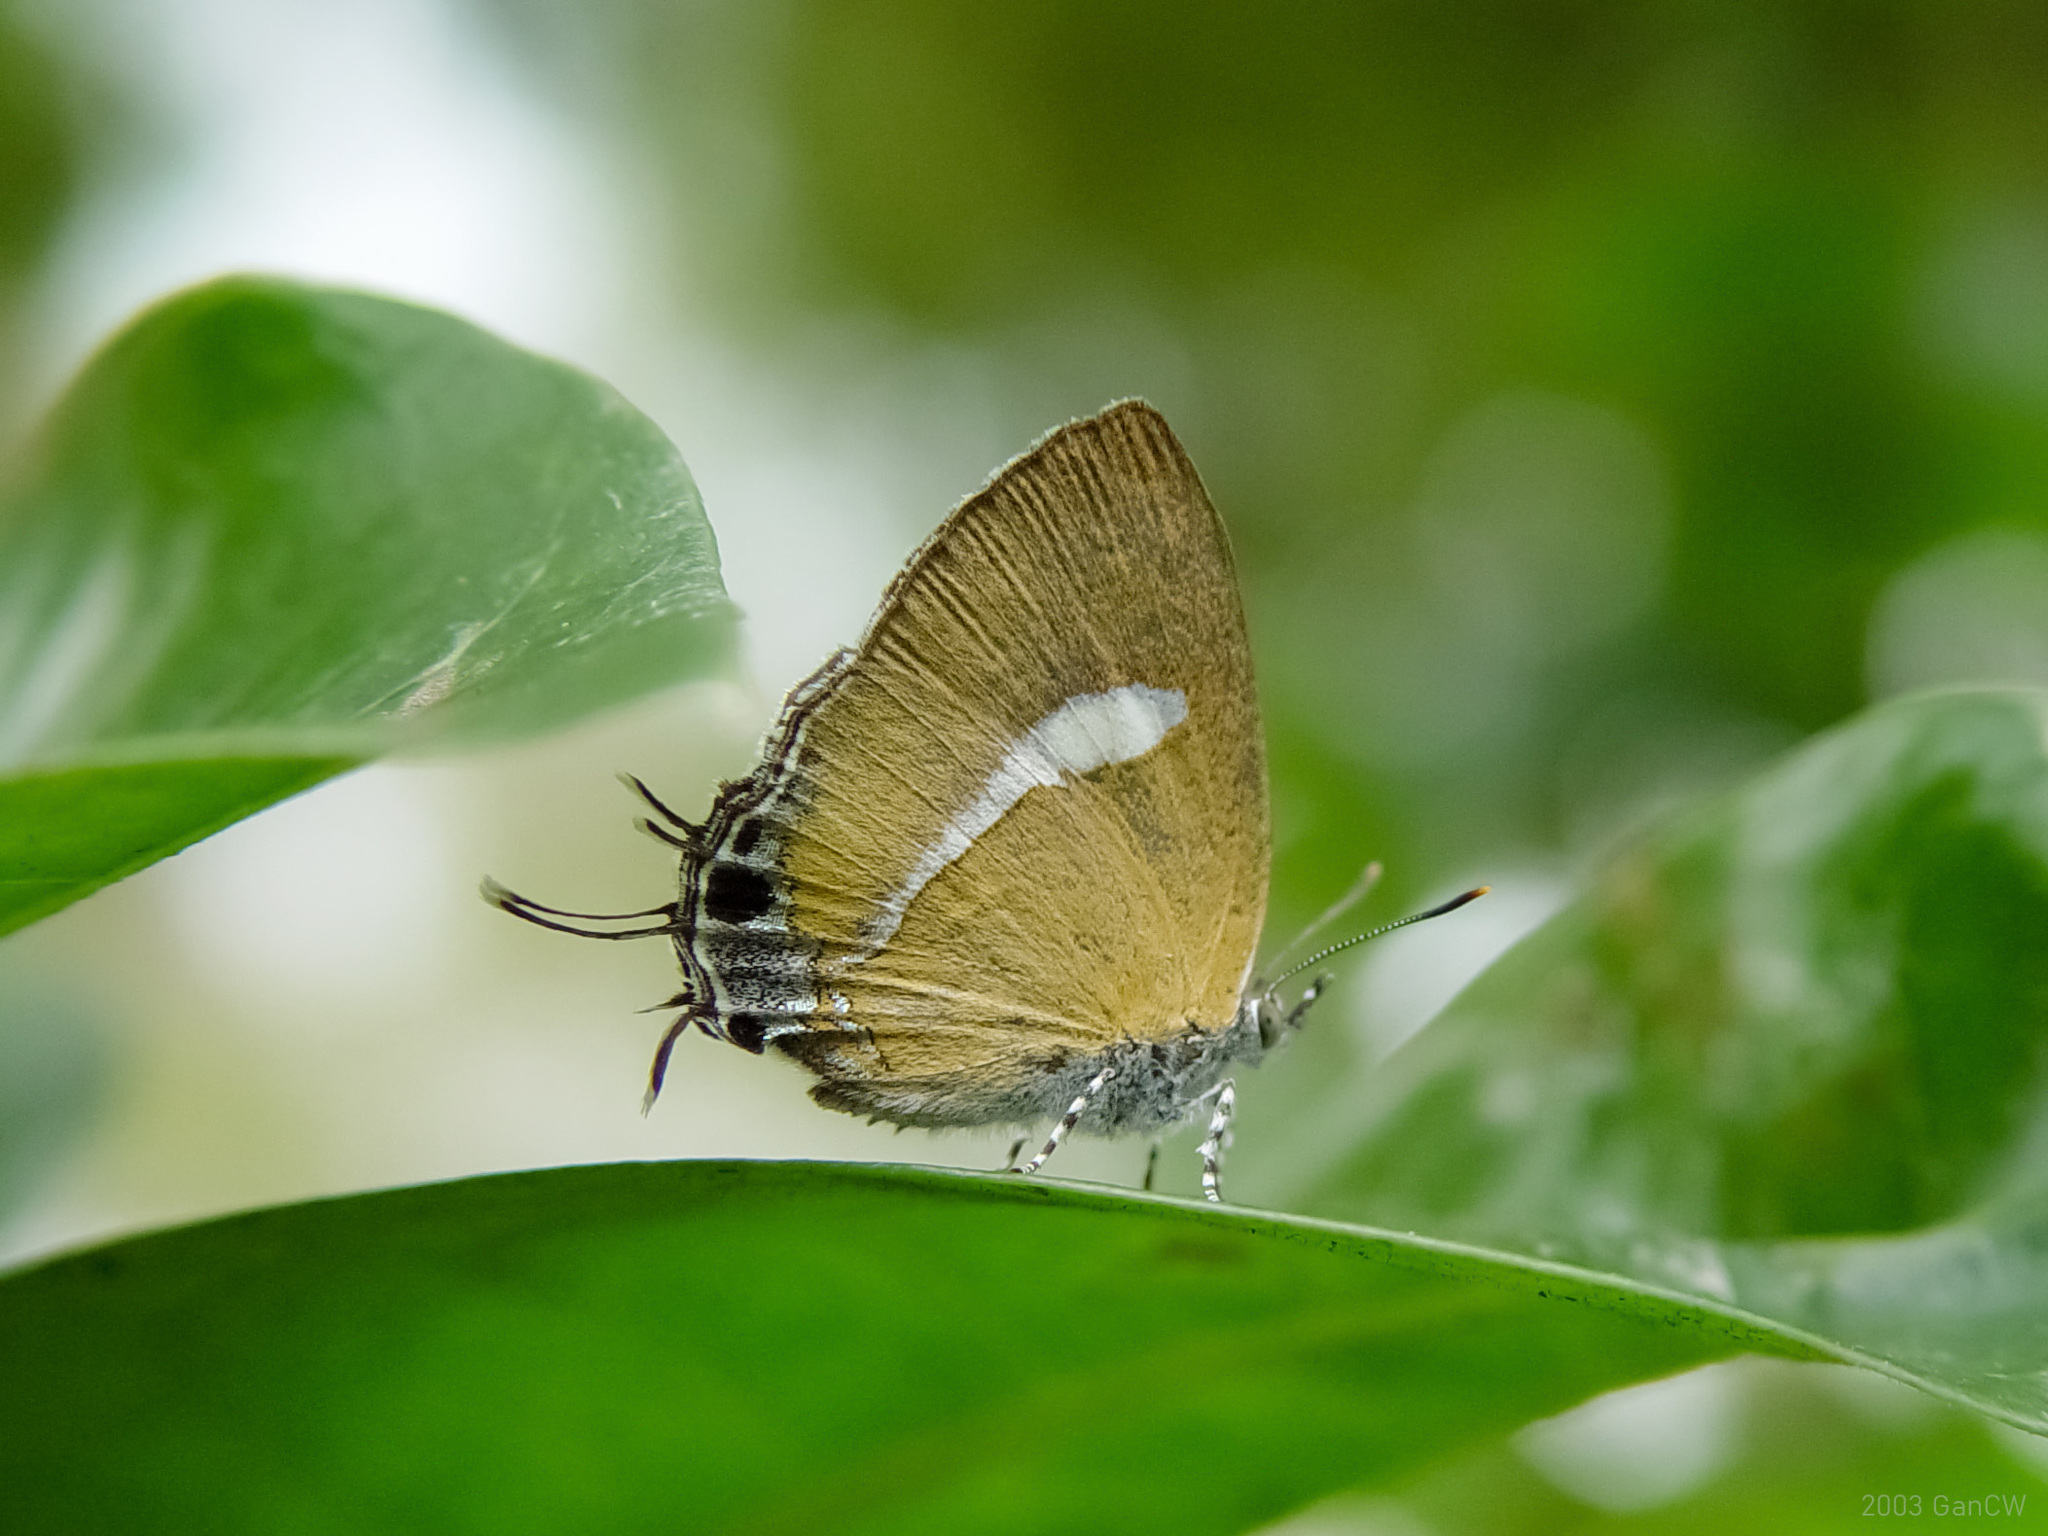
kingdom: Animalia
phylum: Arthropoda
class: Insecta
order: Lepidoptera
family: Lycaenidae
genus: Horaga
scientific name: Horaga syrinx
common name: Ambon onyx
